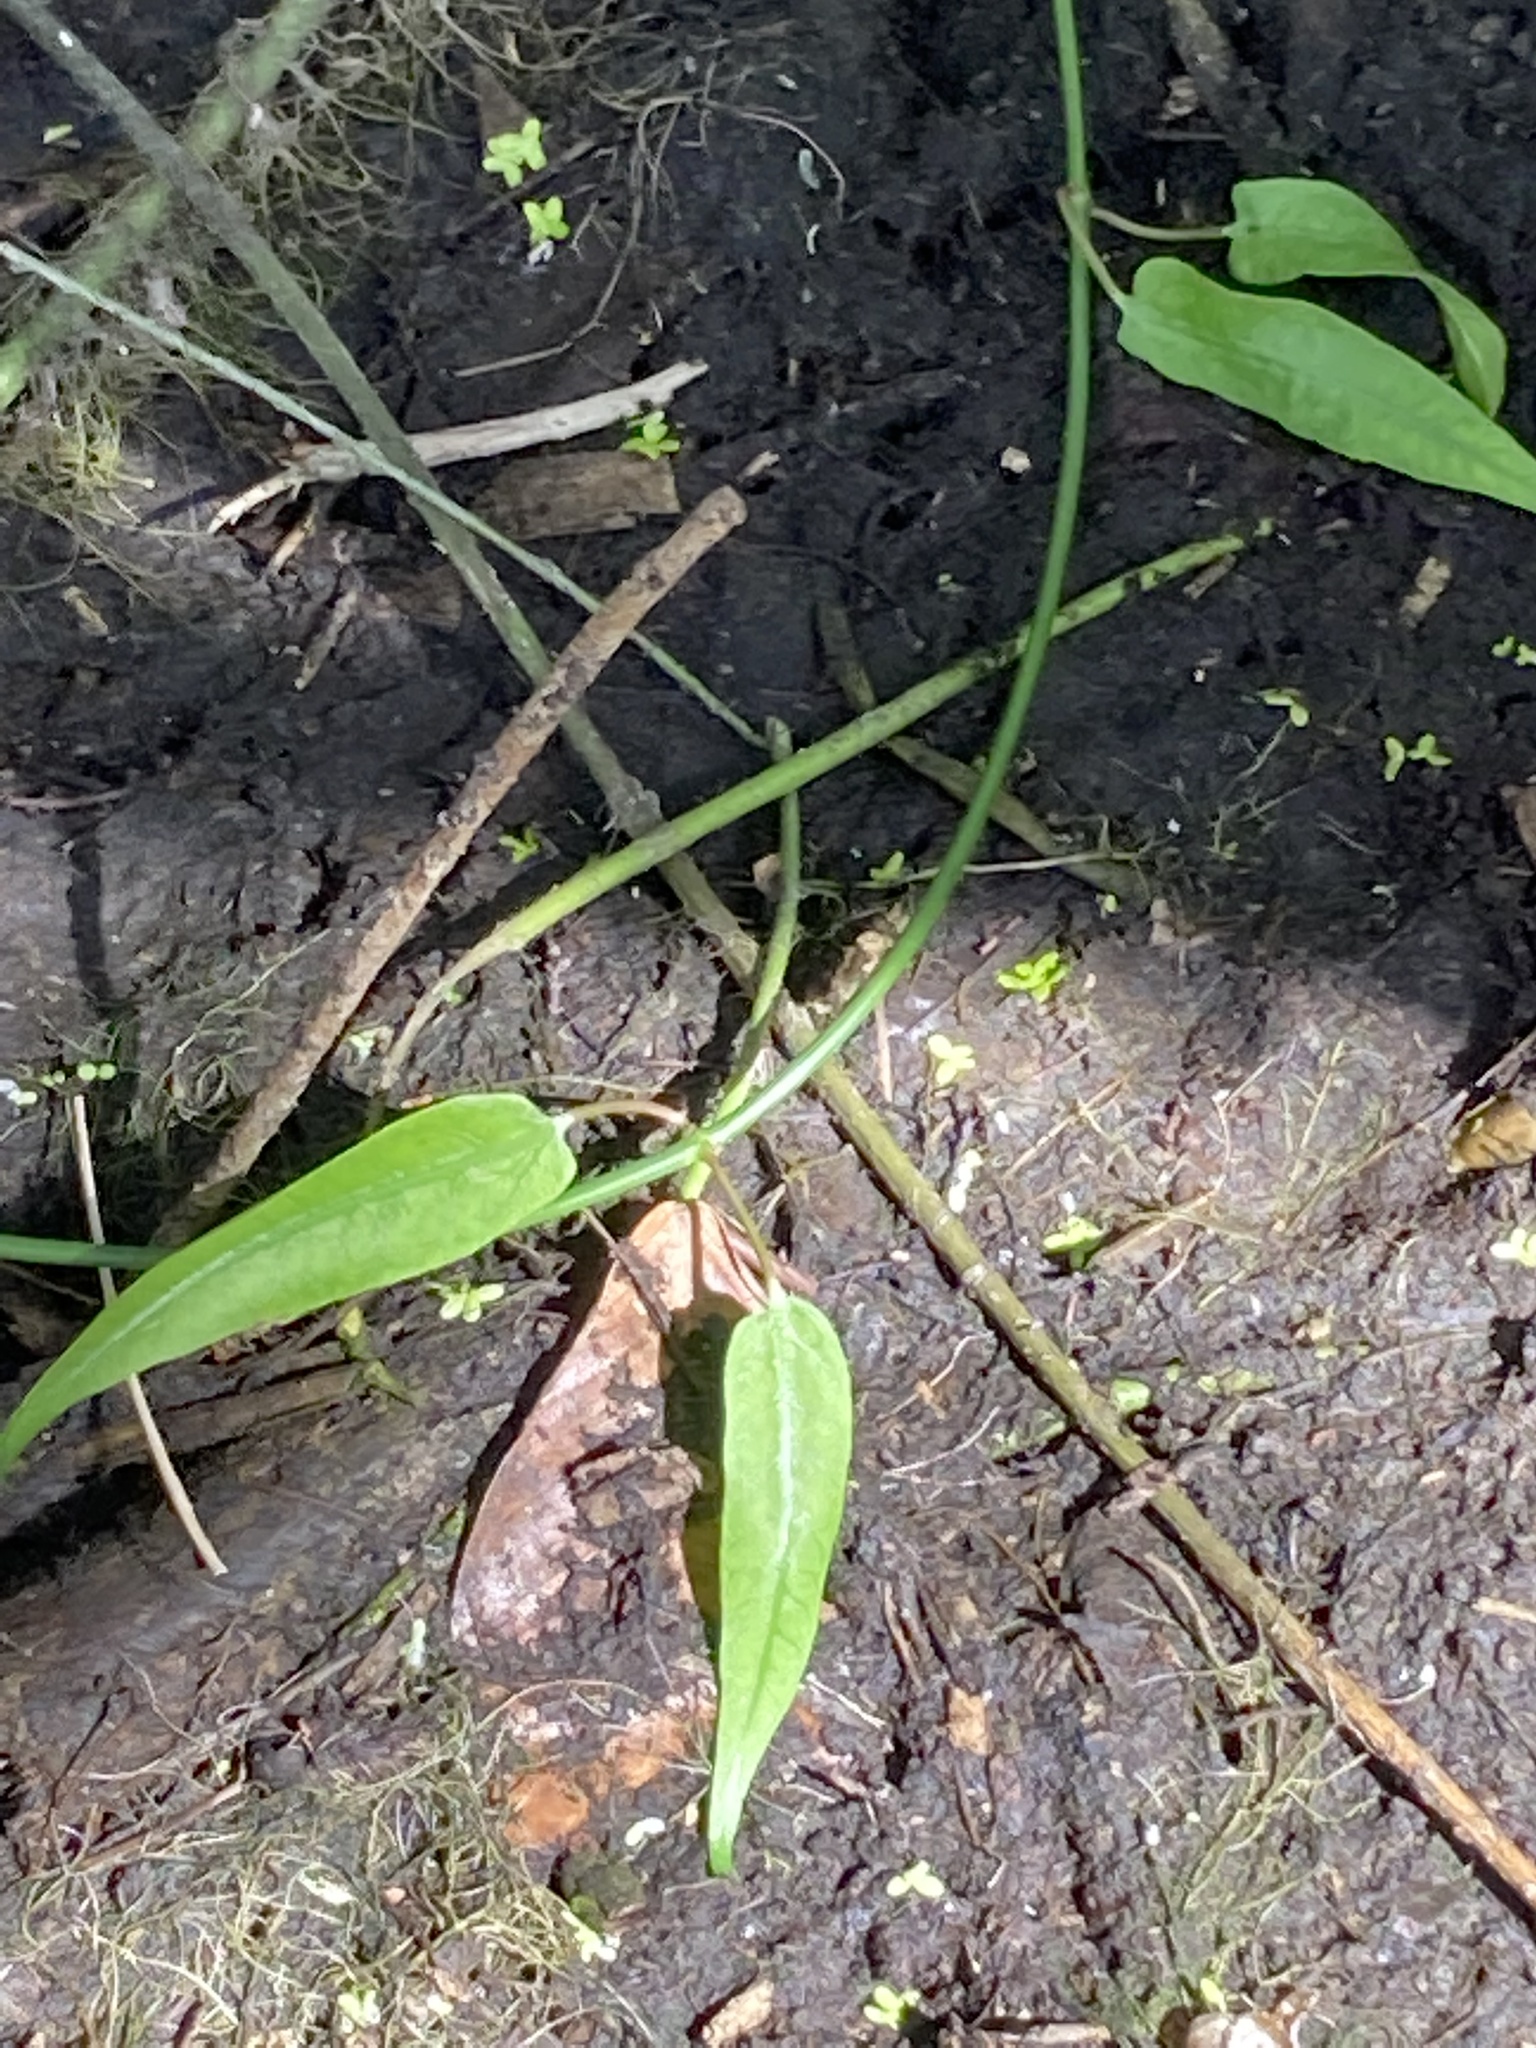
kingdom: Plantae
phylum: Tracheophyta
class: Magnoliopsida
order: Gentianales
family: Apocynaceae
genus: Funastrum
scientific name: Funastrum clausum
